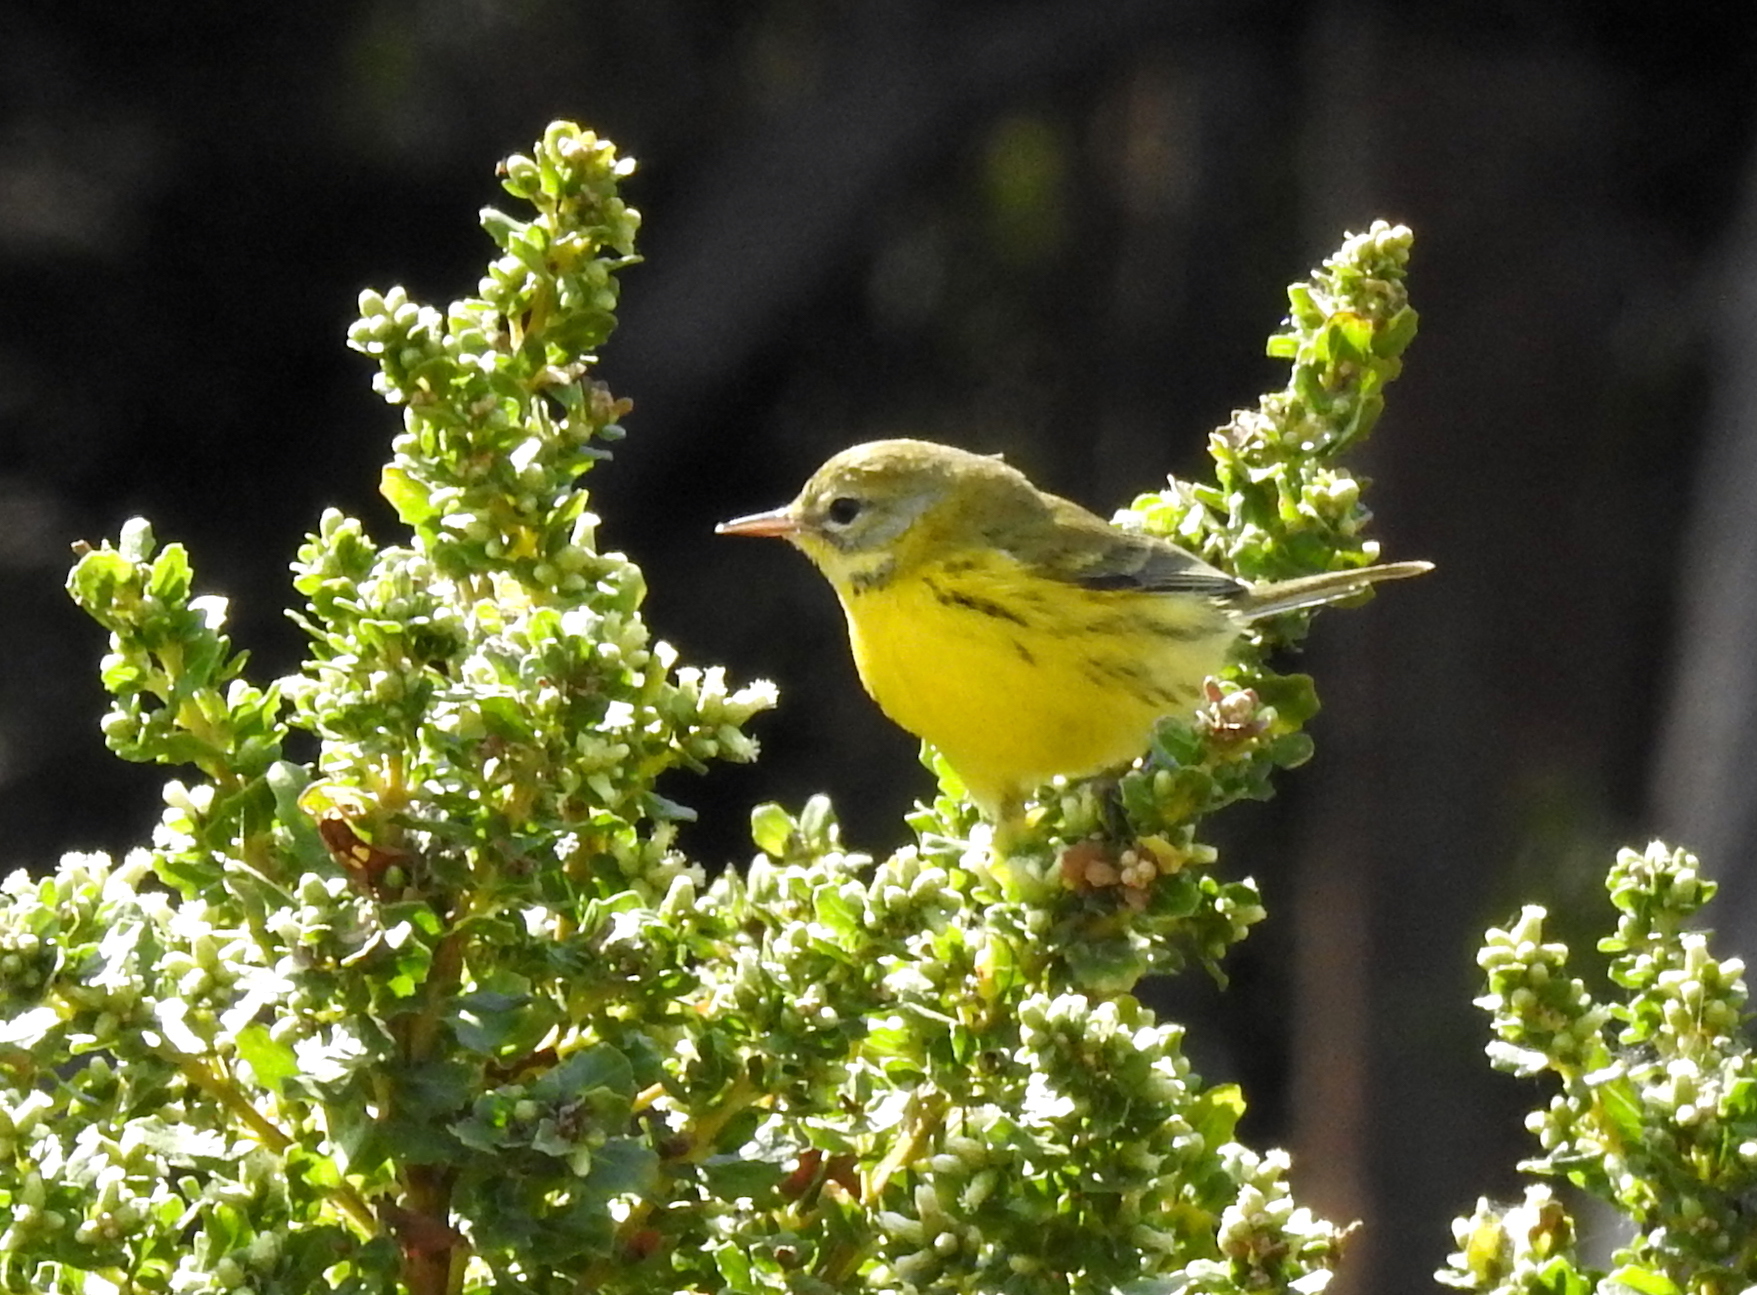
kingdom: Animalia
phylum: Chordata
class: Aves
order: Passeriformes
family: Parulidae
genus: Setophaga
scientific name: Setophaga discolor
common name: Prairie warbler
